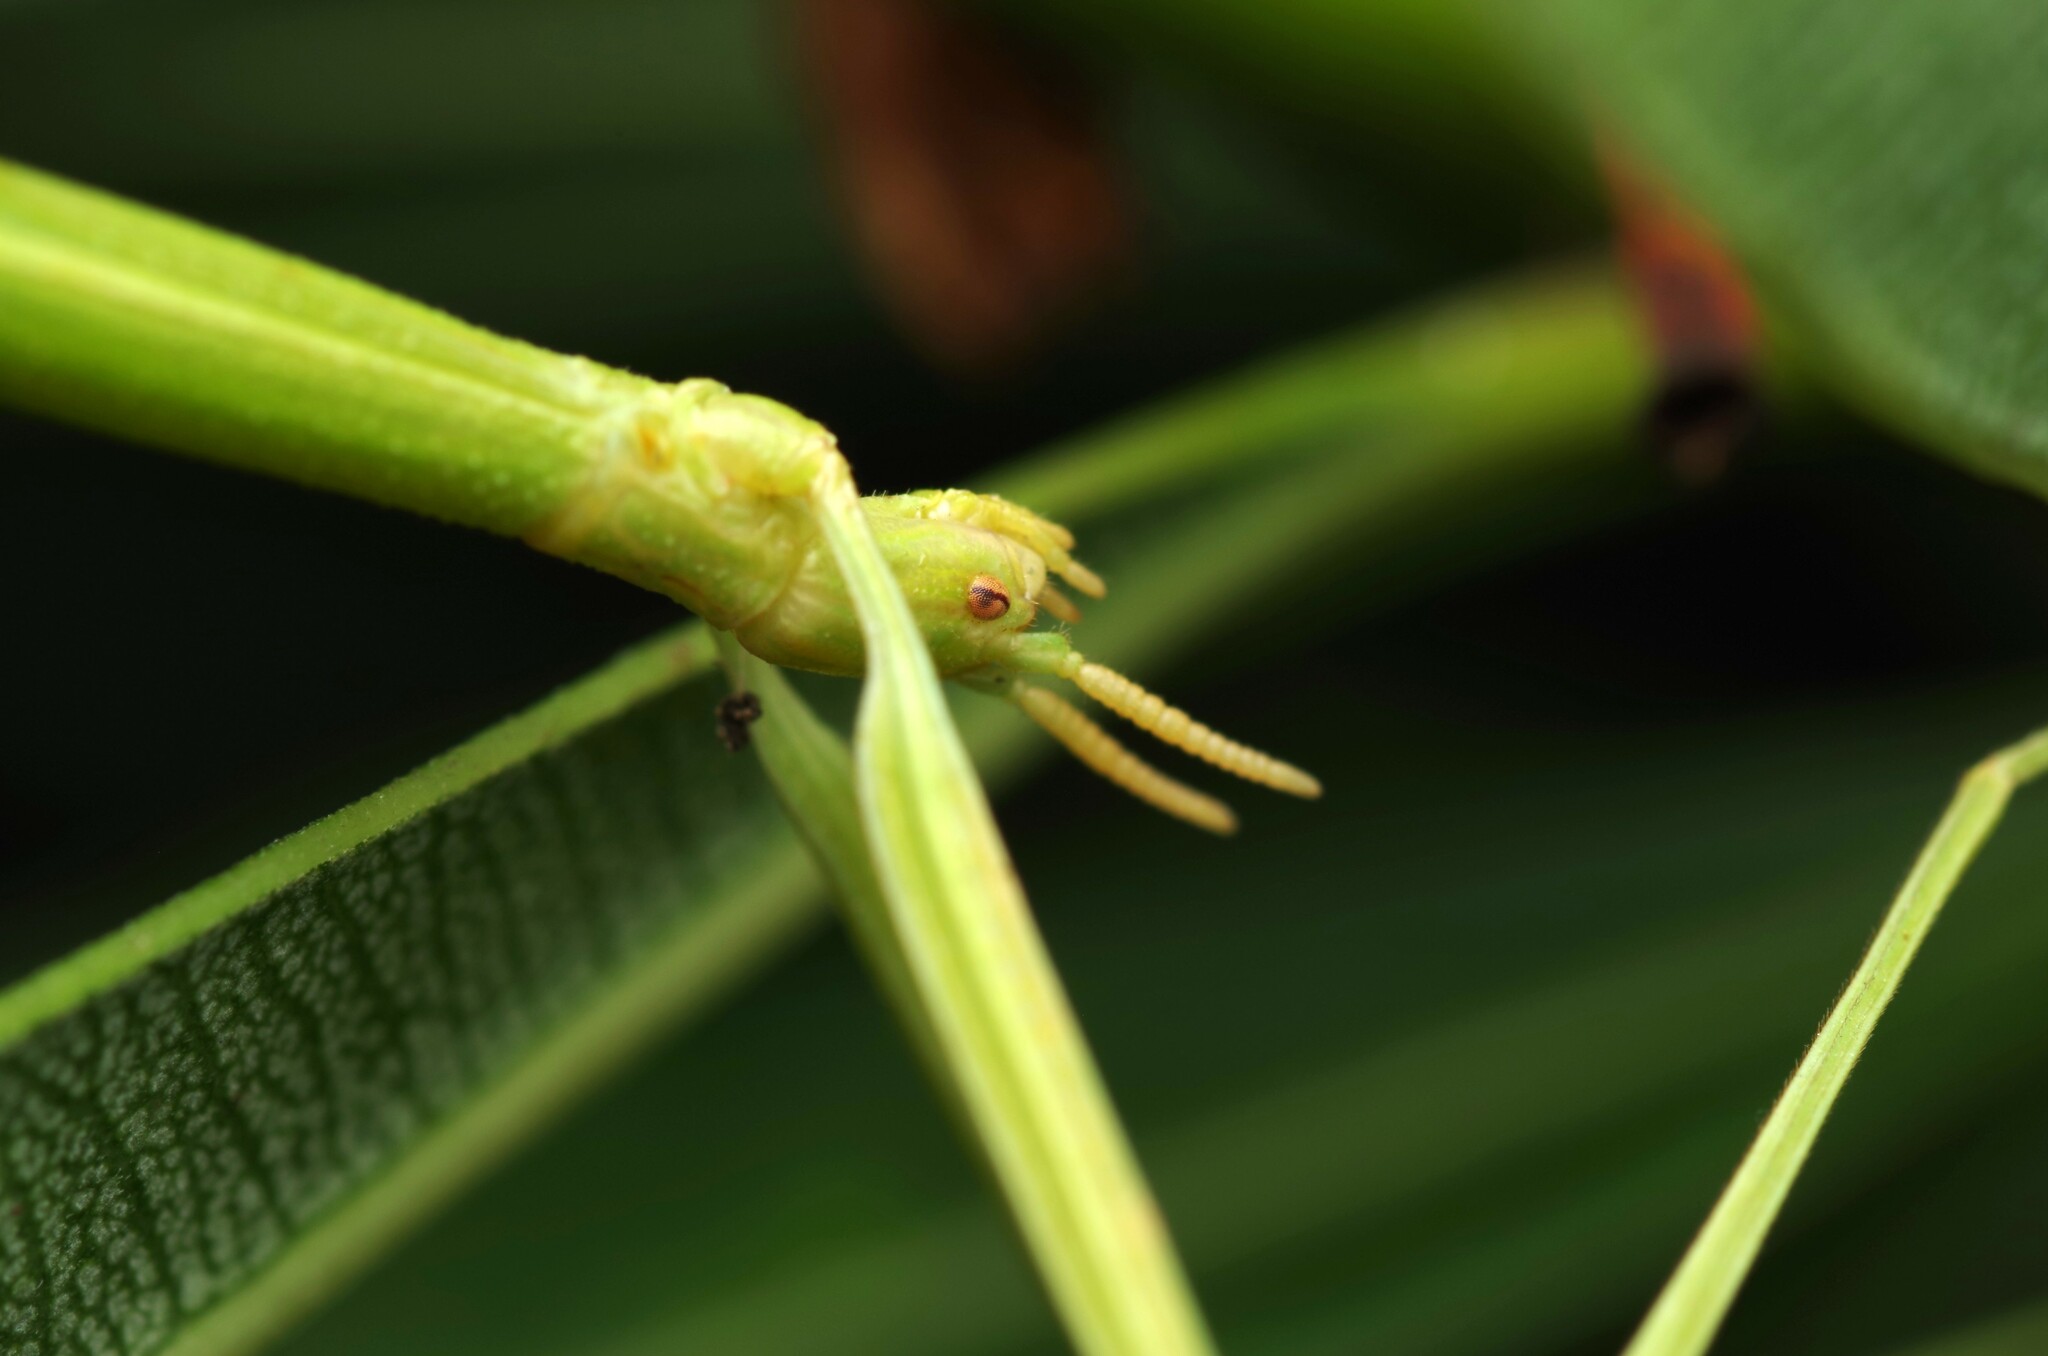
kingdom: Animalia
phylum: Arthropoda
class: Insecta
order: Phasmida
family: Bacillidae
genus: Clonopsis
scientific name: Clonopsis gallica
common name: French stick insect
